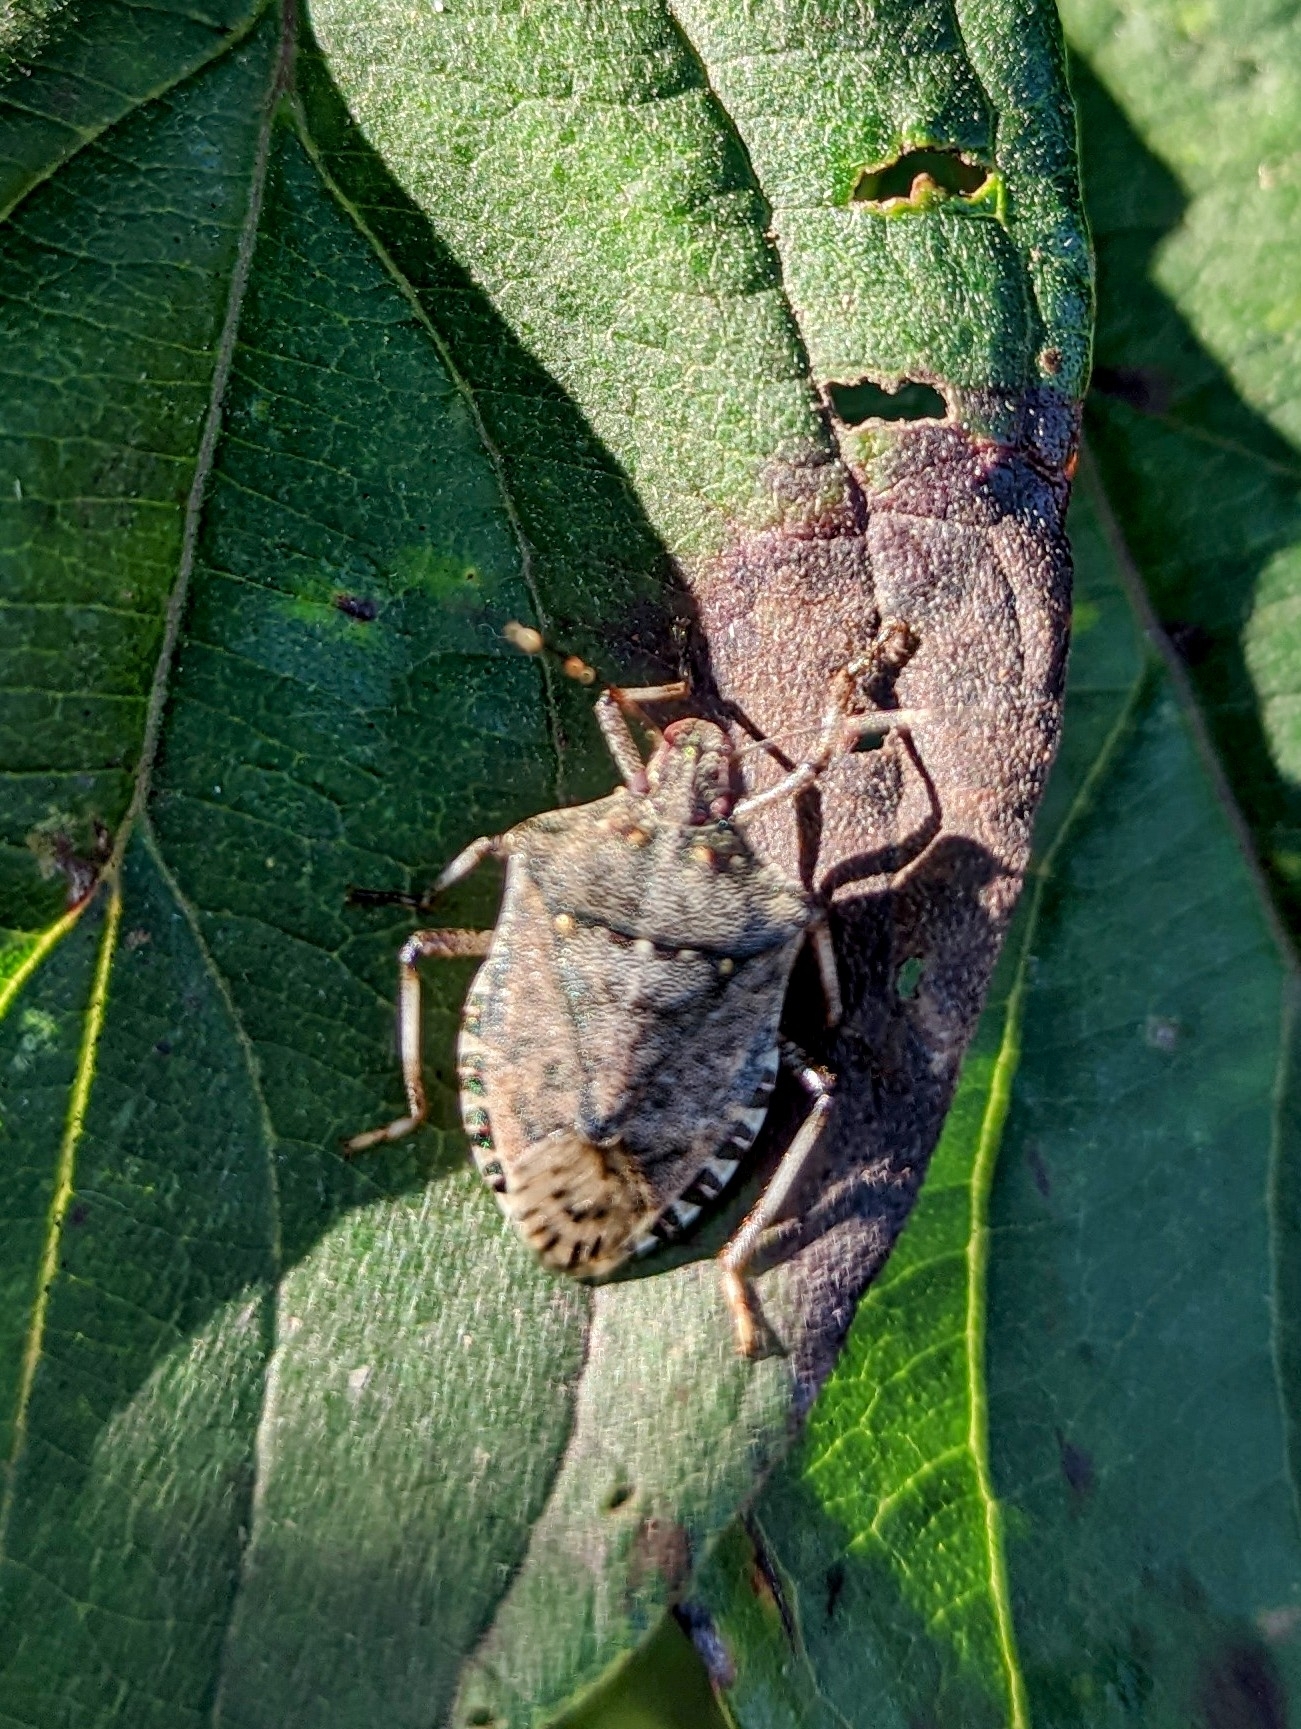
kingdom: Animalia
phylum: Arthropoda
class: Insecta
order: Hemiptera
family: Pentatomidae
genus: Halyomorpha
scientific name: Halyomorpha halys
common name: Brown marmorated stink bug
